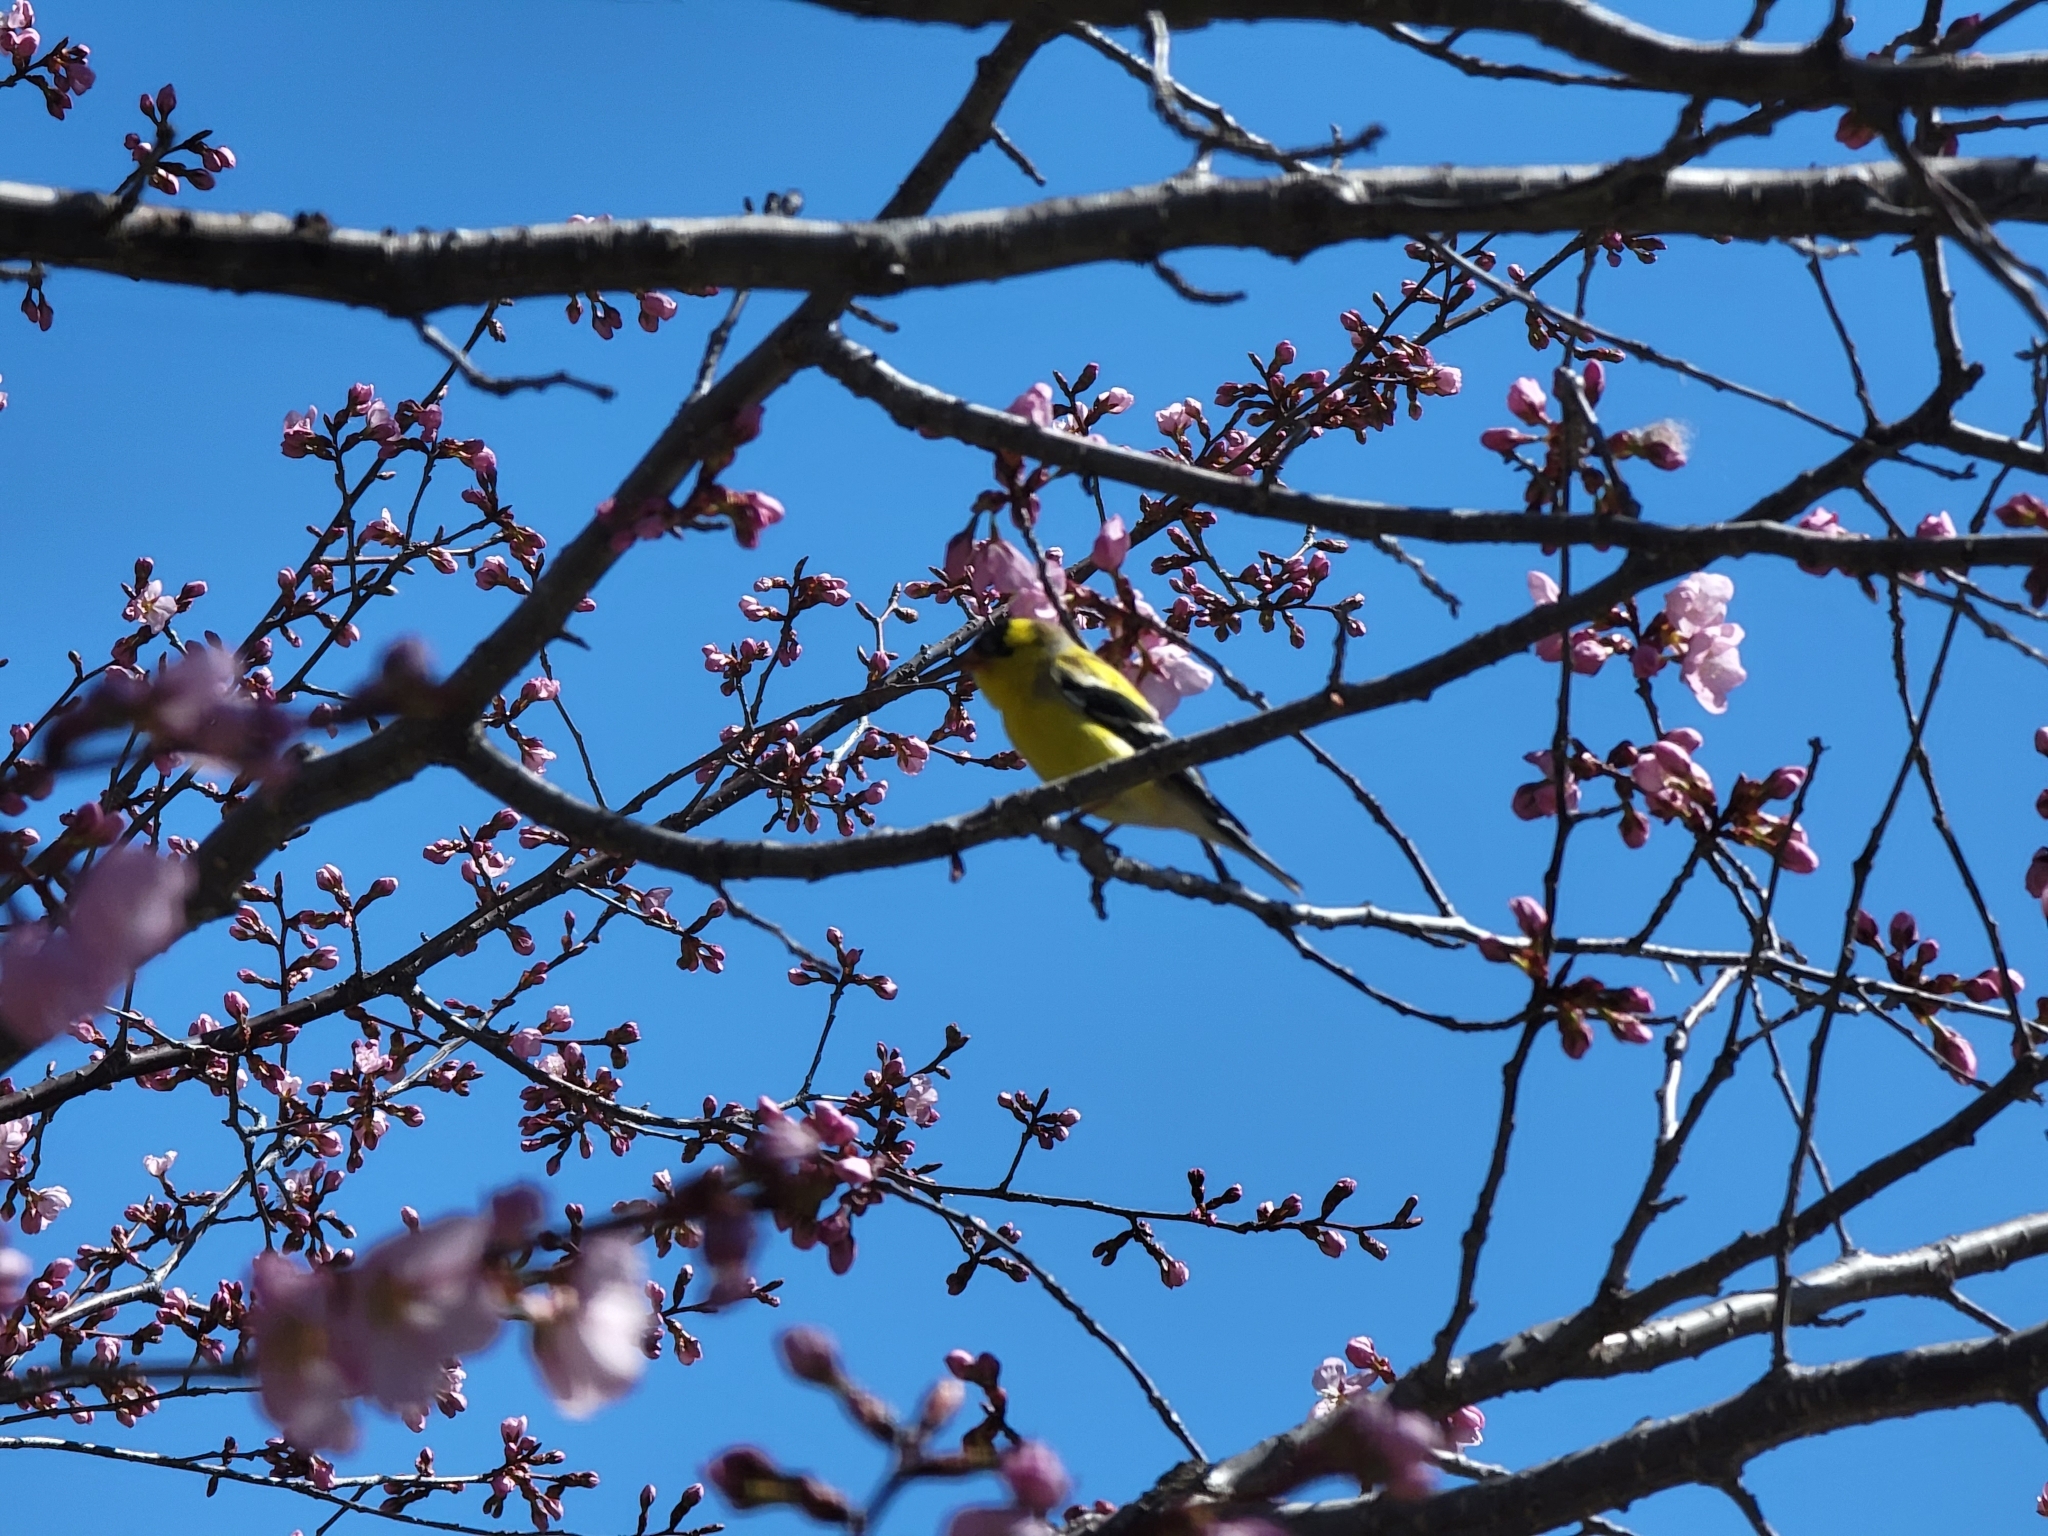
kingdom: Animalia
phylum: Chordata
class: Aves
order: Passeriformes
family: Fringillidae
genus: Spinus
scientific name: Spinus tristis
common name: American goldfinch
